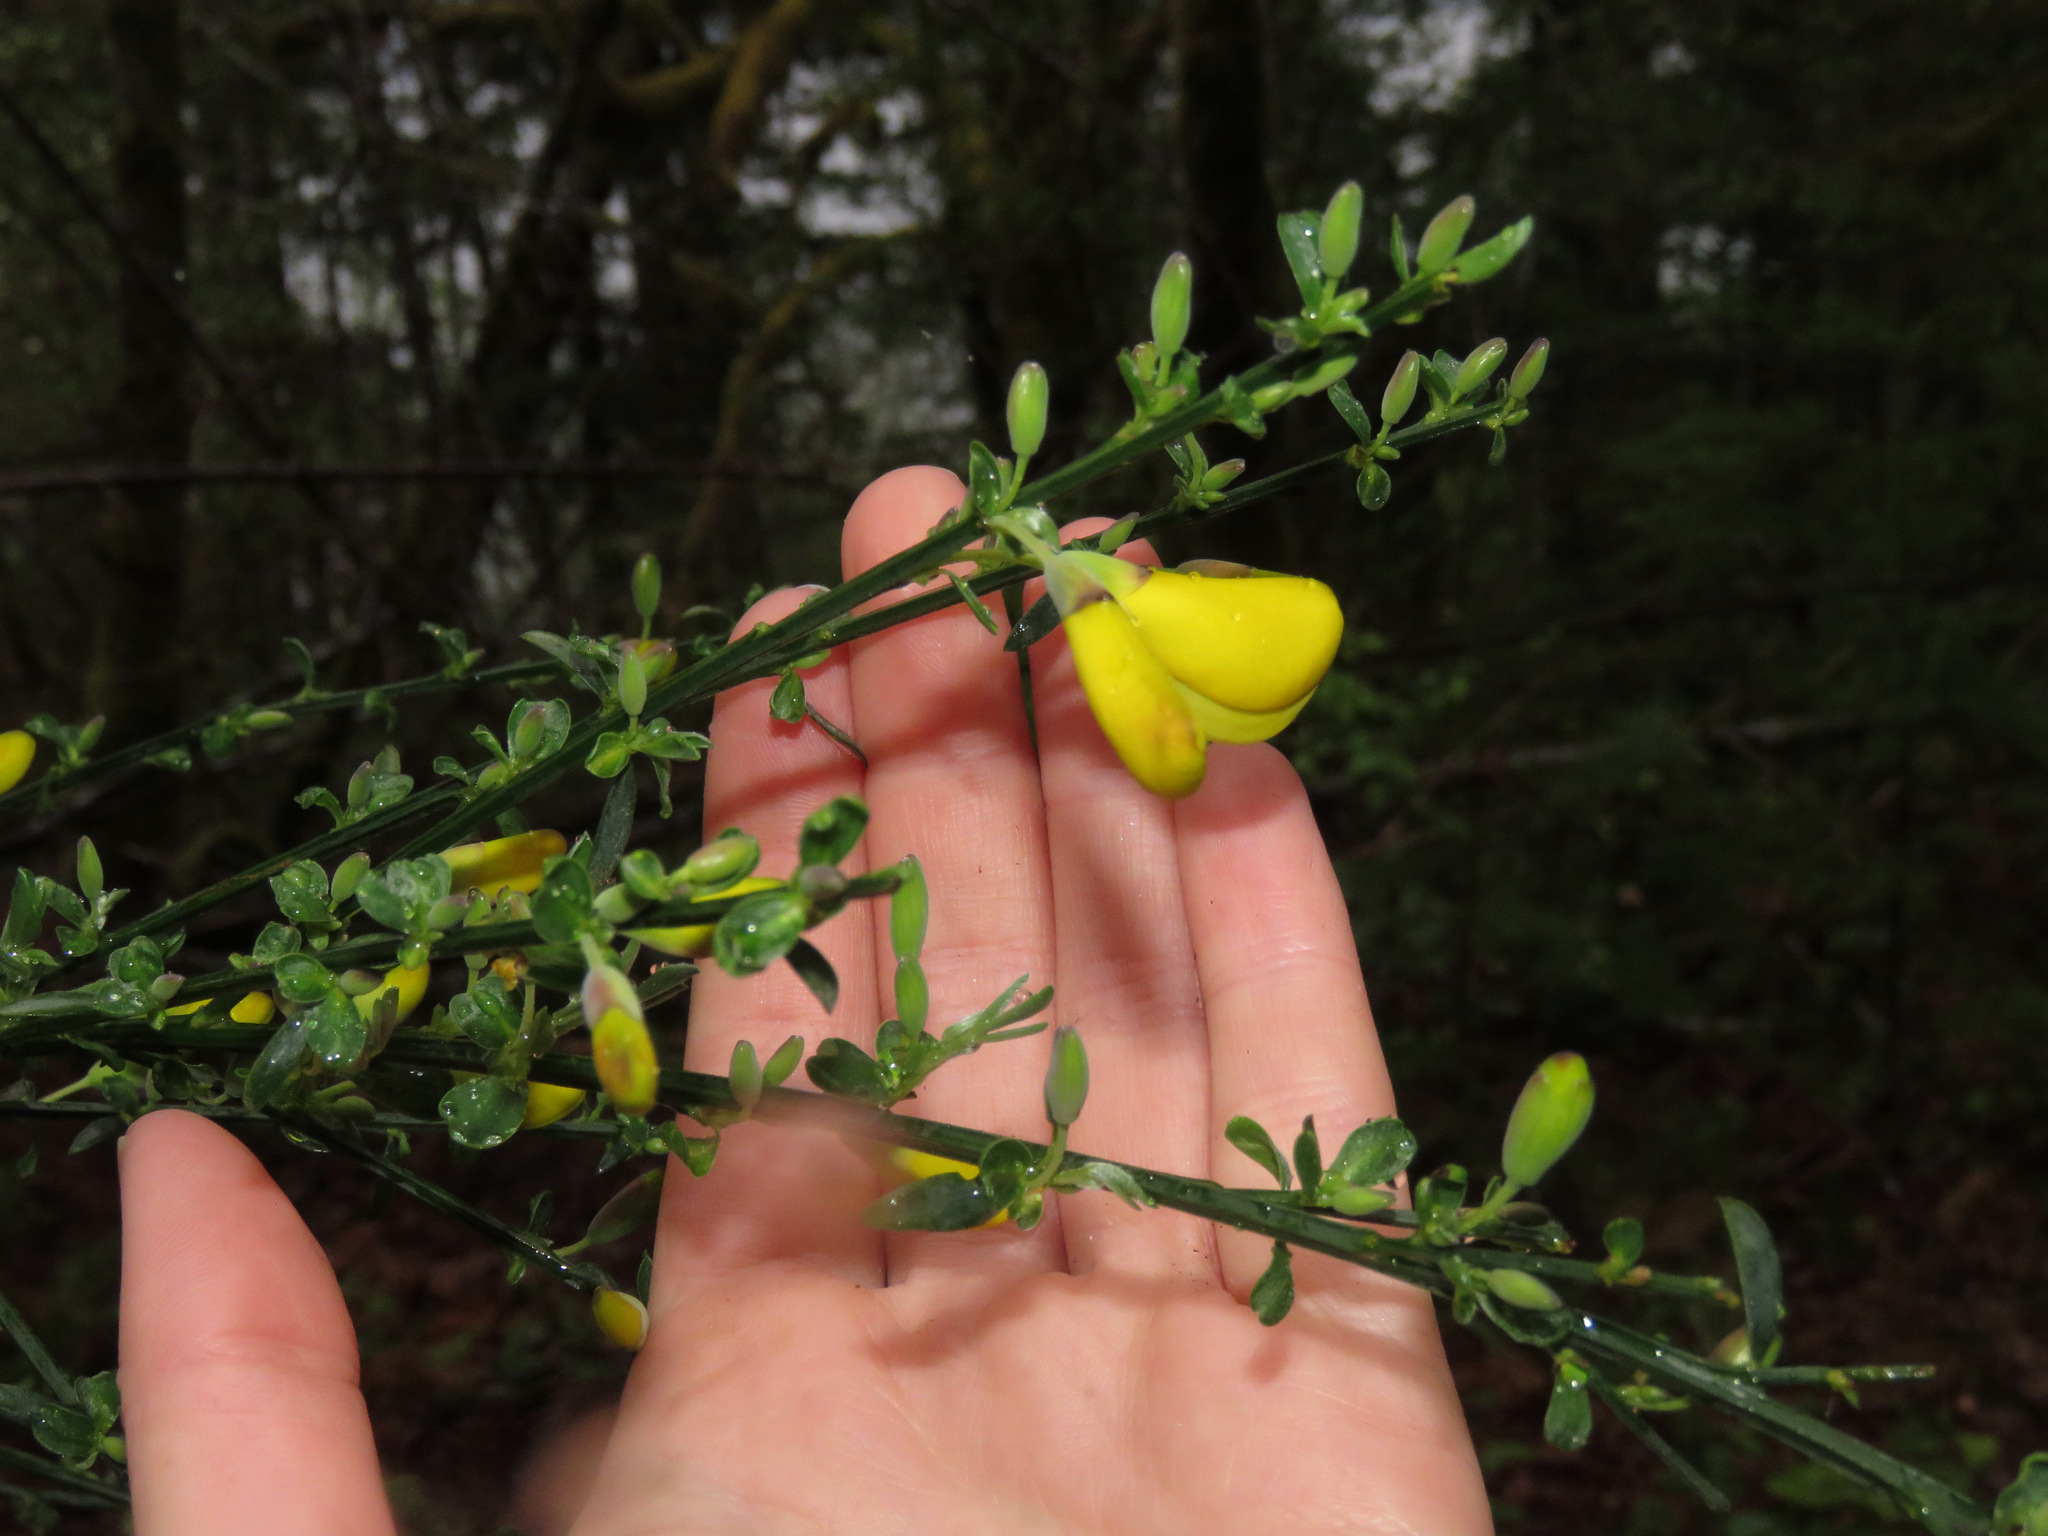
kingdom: Plantae
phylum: Tracheophyta
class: Magnoliopsida
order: Fabales
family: Fabaceae
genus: Cytisus
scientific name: Cytisus scoparius
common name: Scotch broom
